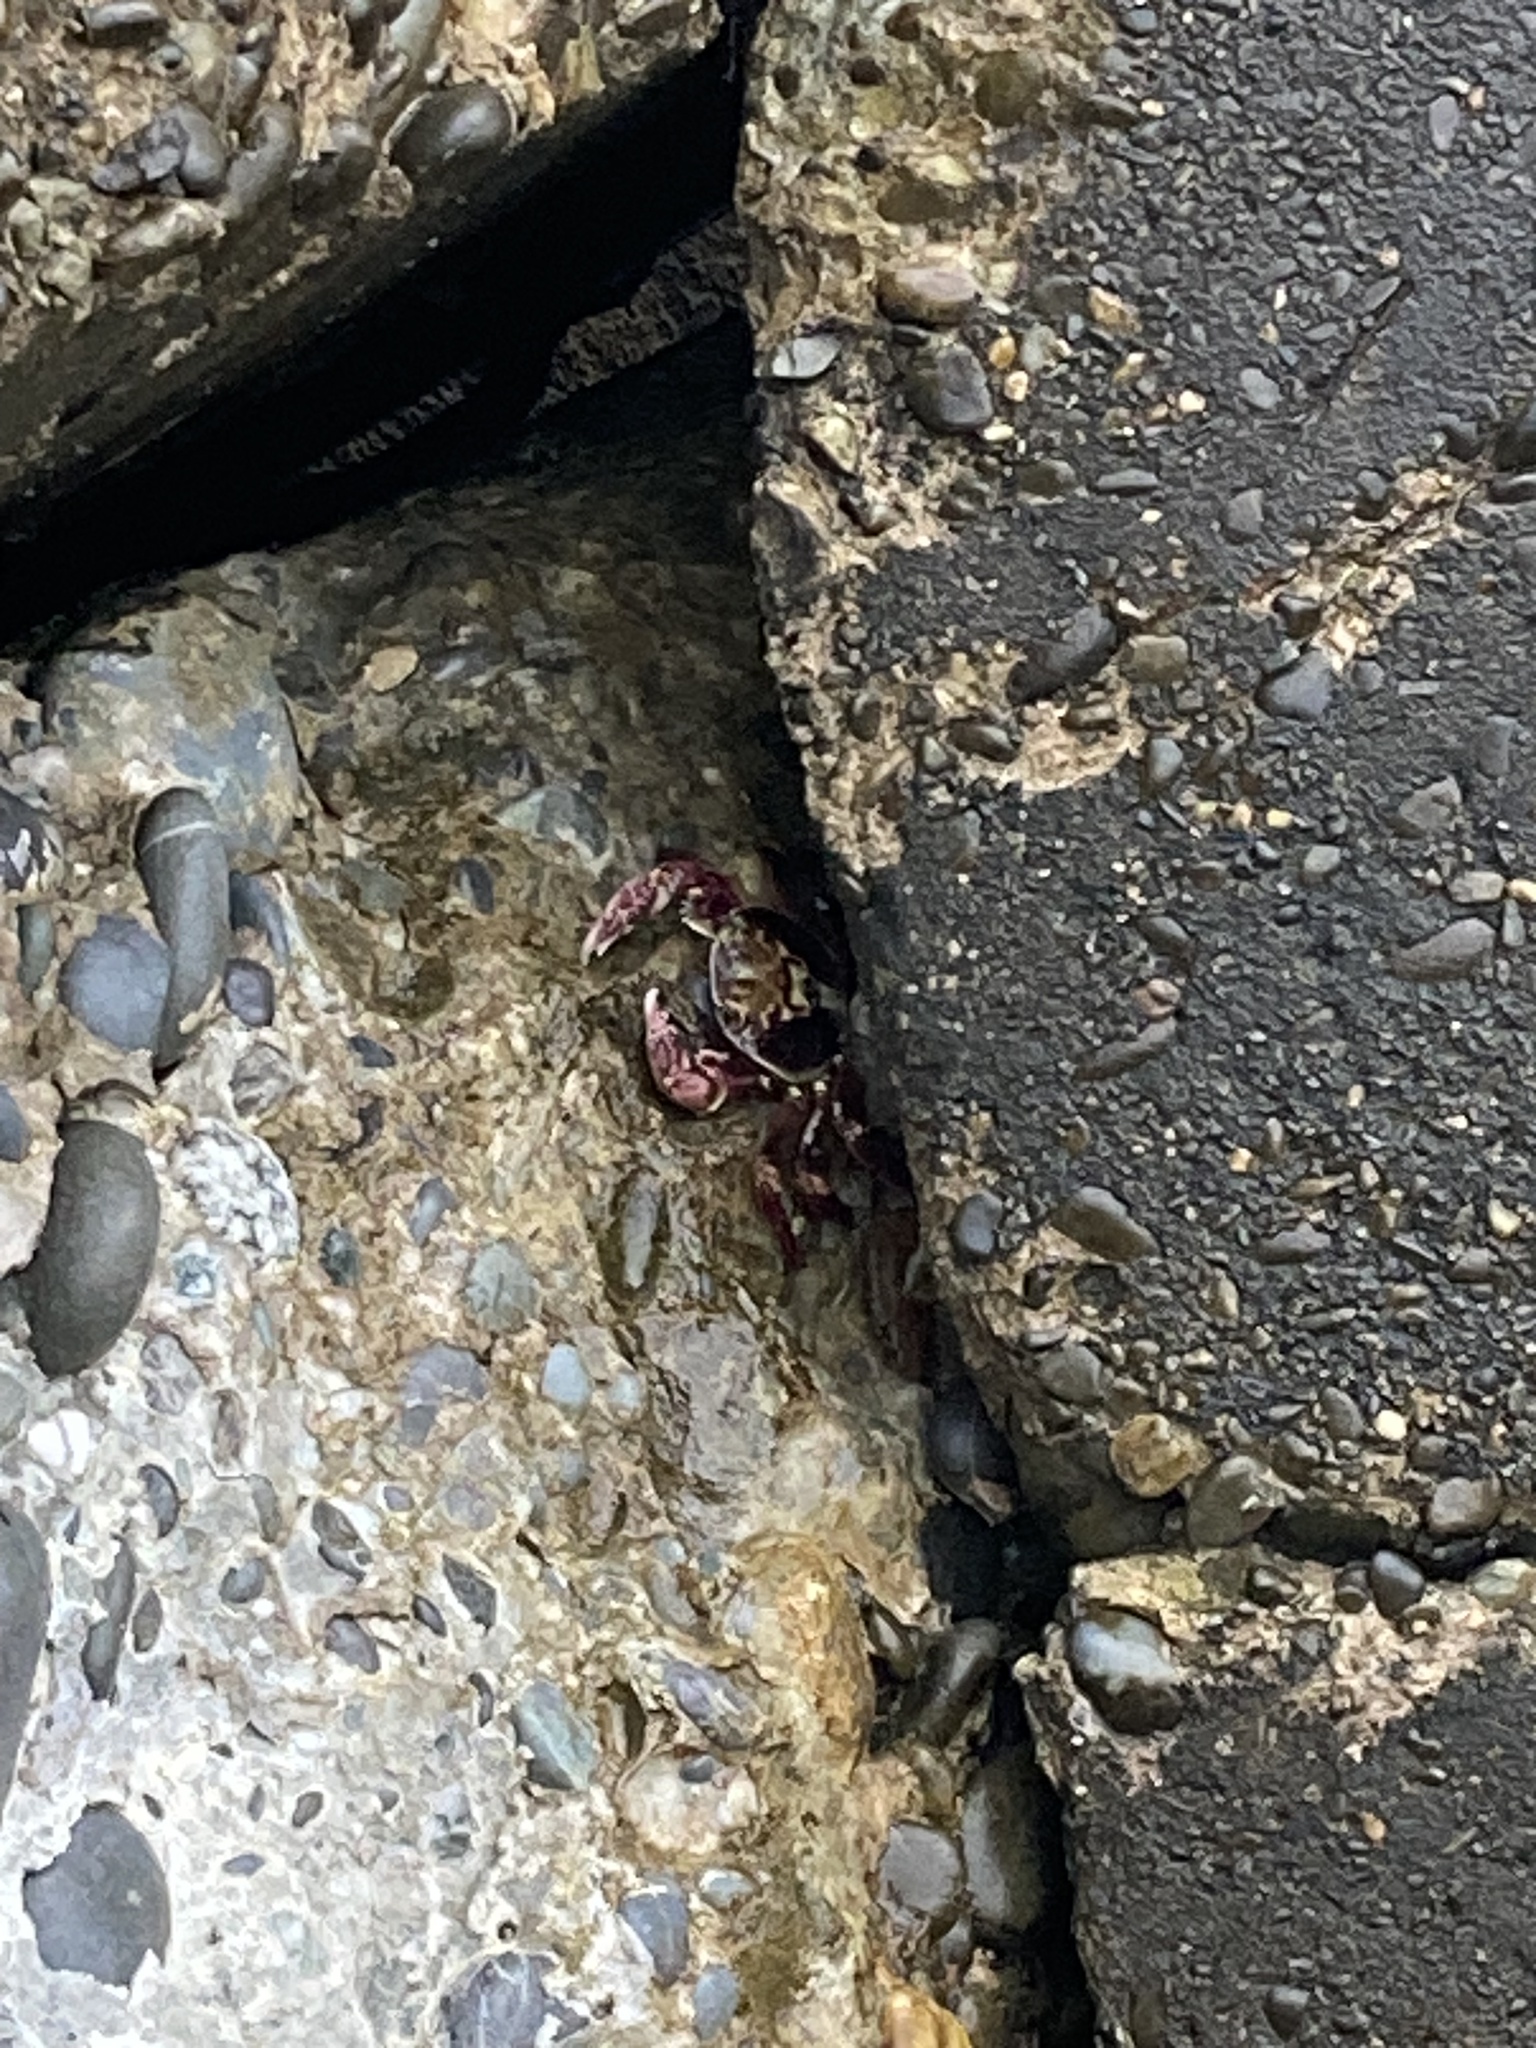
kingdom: Animalia
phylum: Arthropoda
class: Malacostraca
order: Decapoda
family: Grapsidae
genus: Leptograpsus
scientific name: Leptograpsus variegatus
